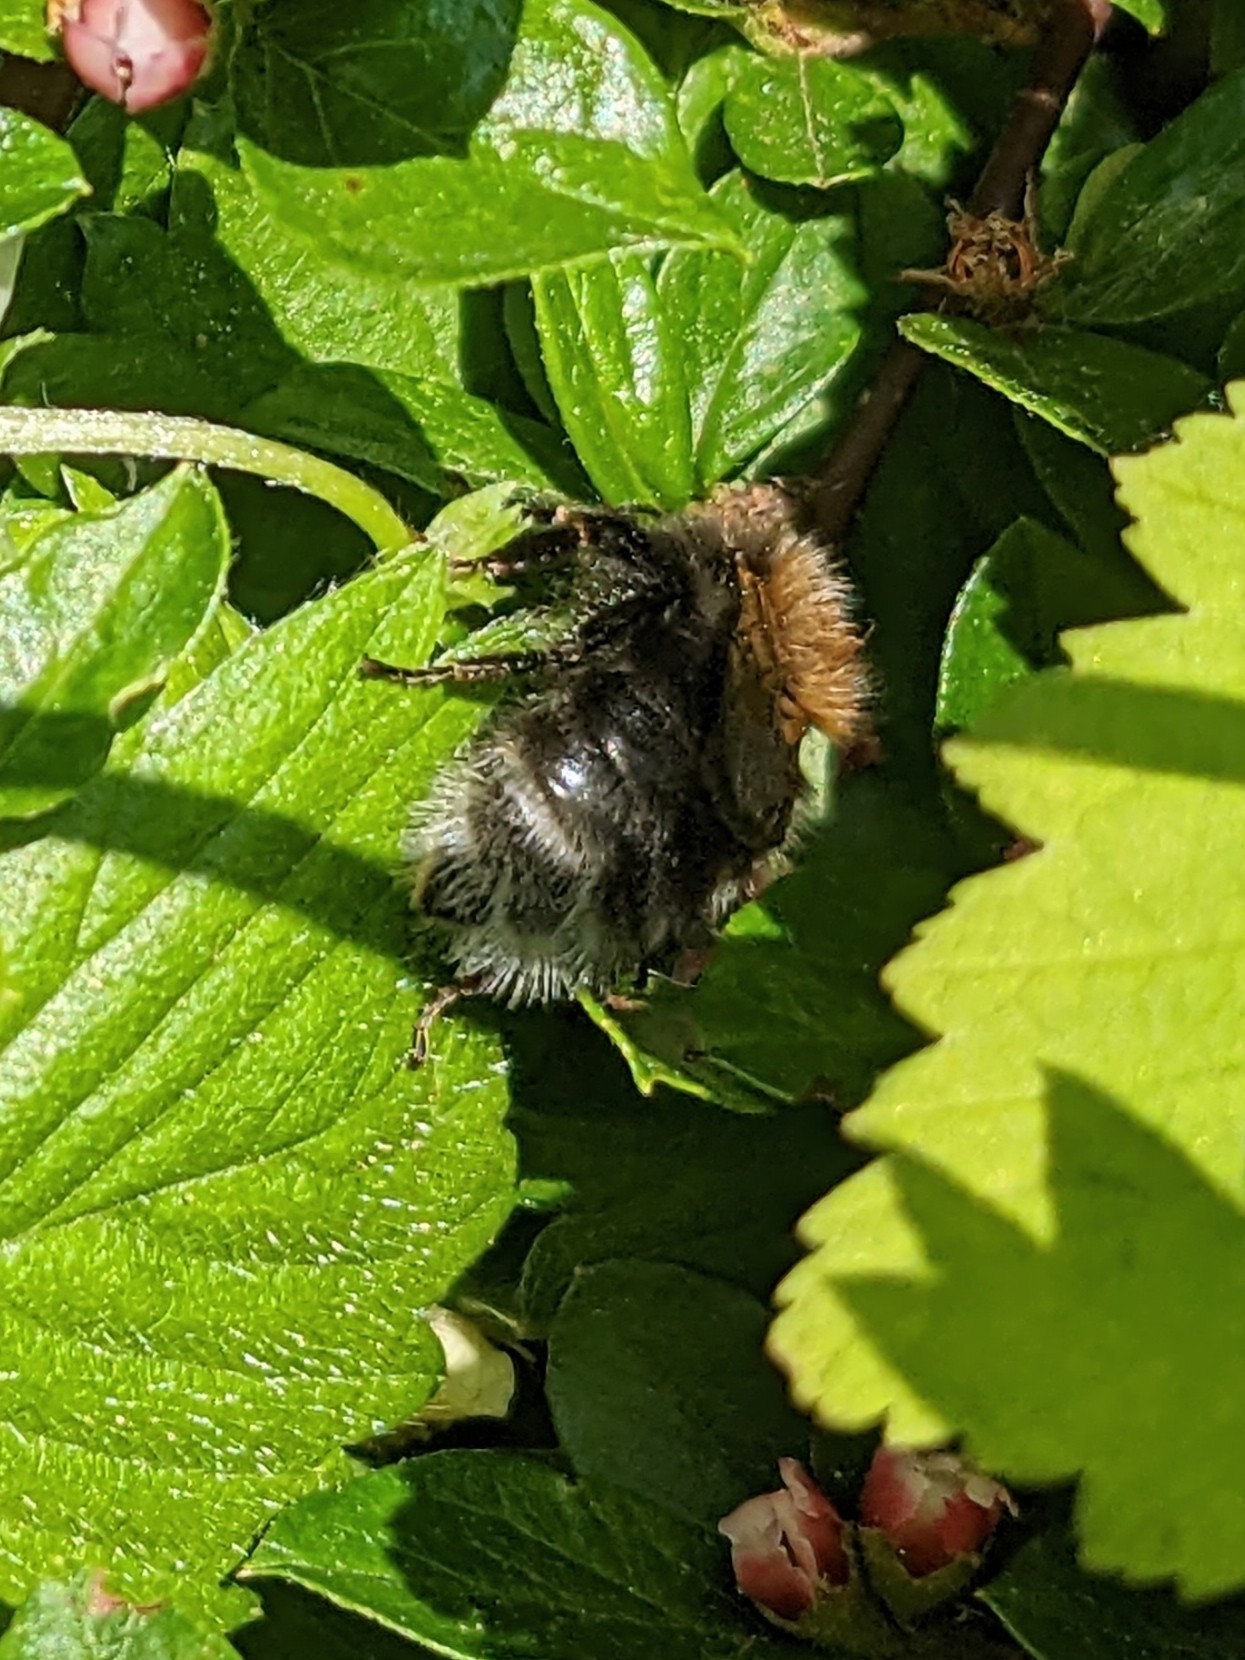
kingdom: Animalia
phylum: Arthropoda
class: Insecta
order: Hymenoptera
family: Apidae
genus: Bombus
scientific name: Bombus hypnorum
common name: New garden bumblebee
